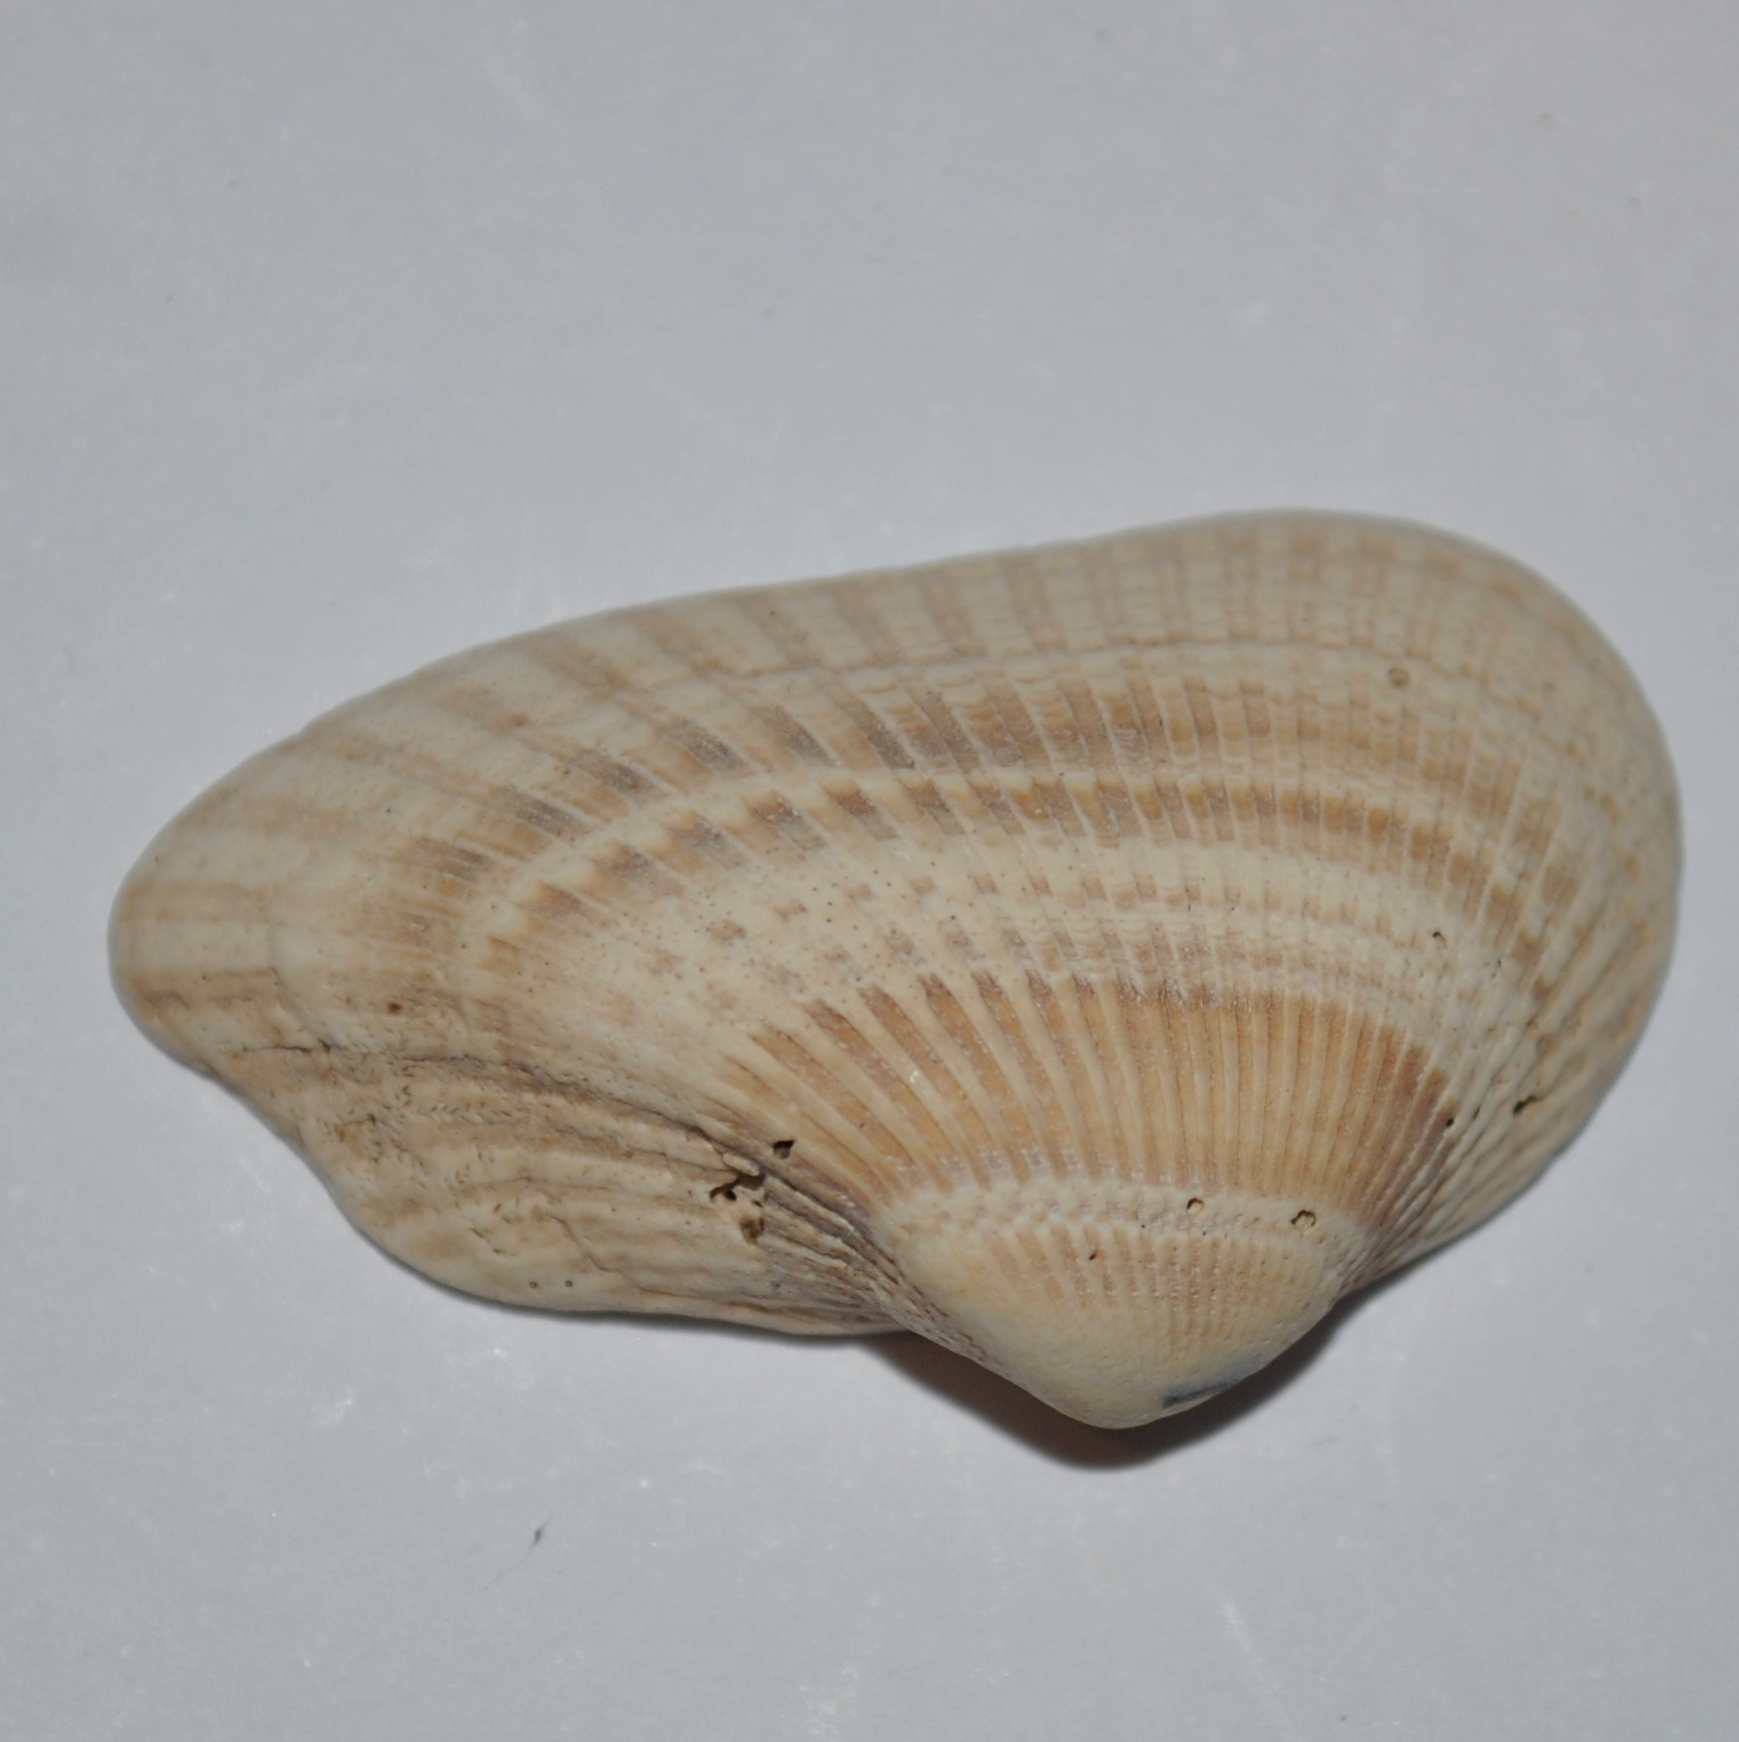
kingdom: Animalia
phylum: Mollusca
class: Bivalvia
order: Arcida
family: Noetiidae
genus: Sheldonella
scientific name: Sheldonella bisulcata
